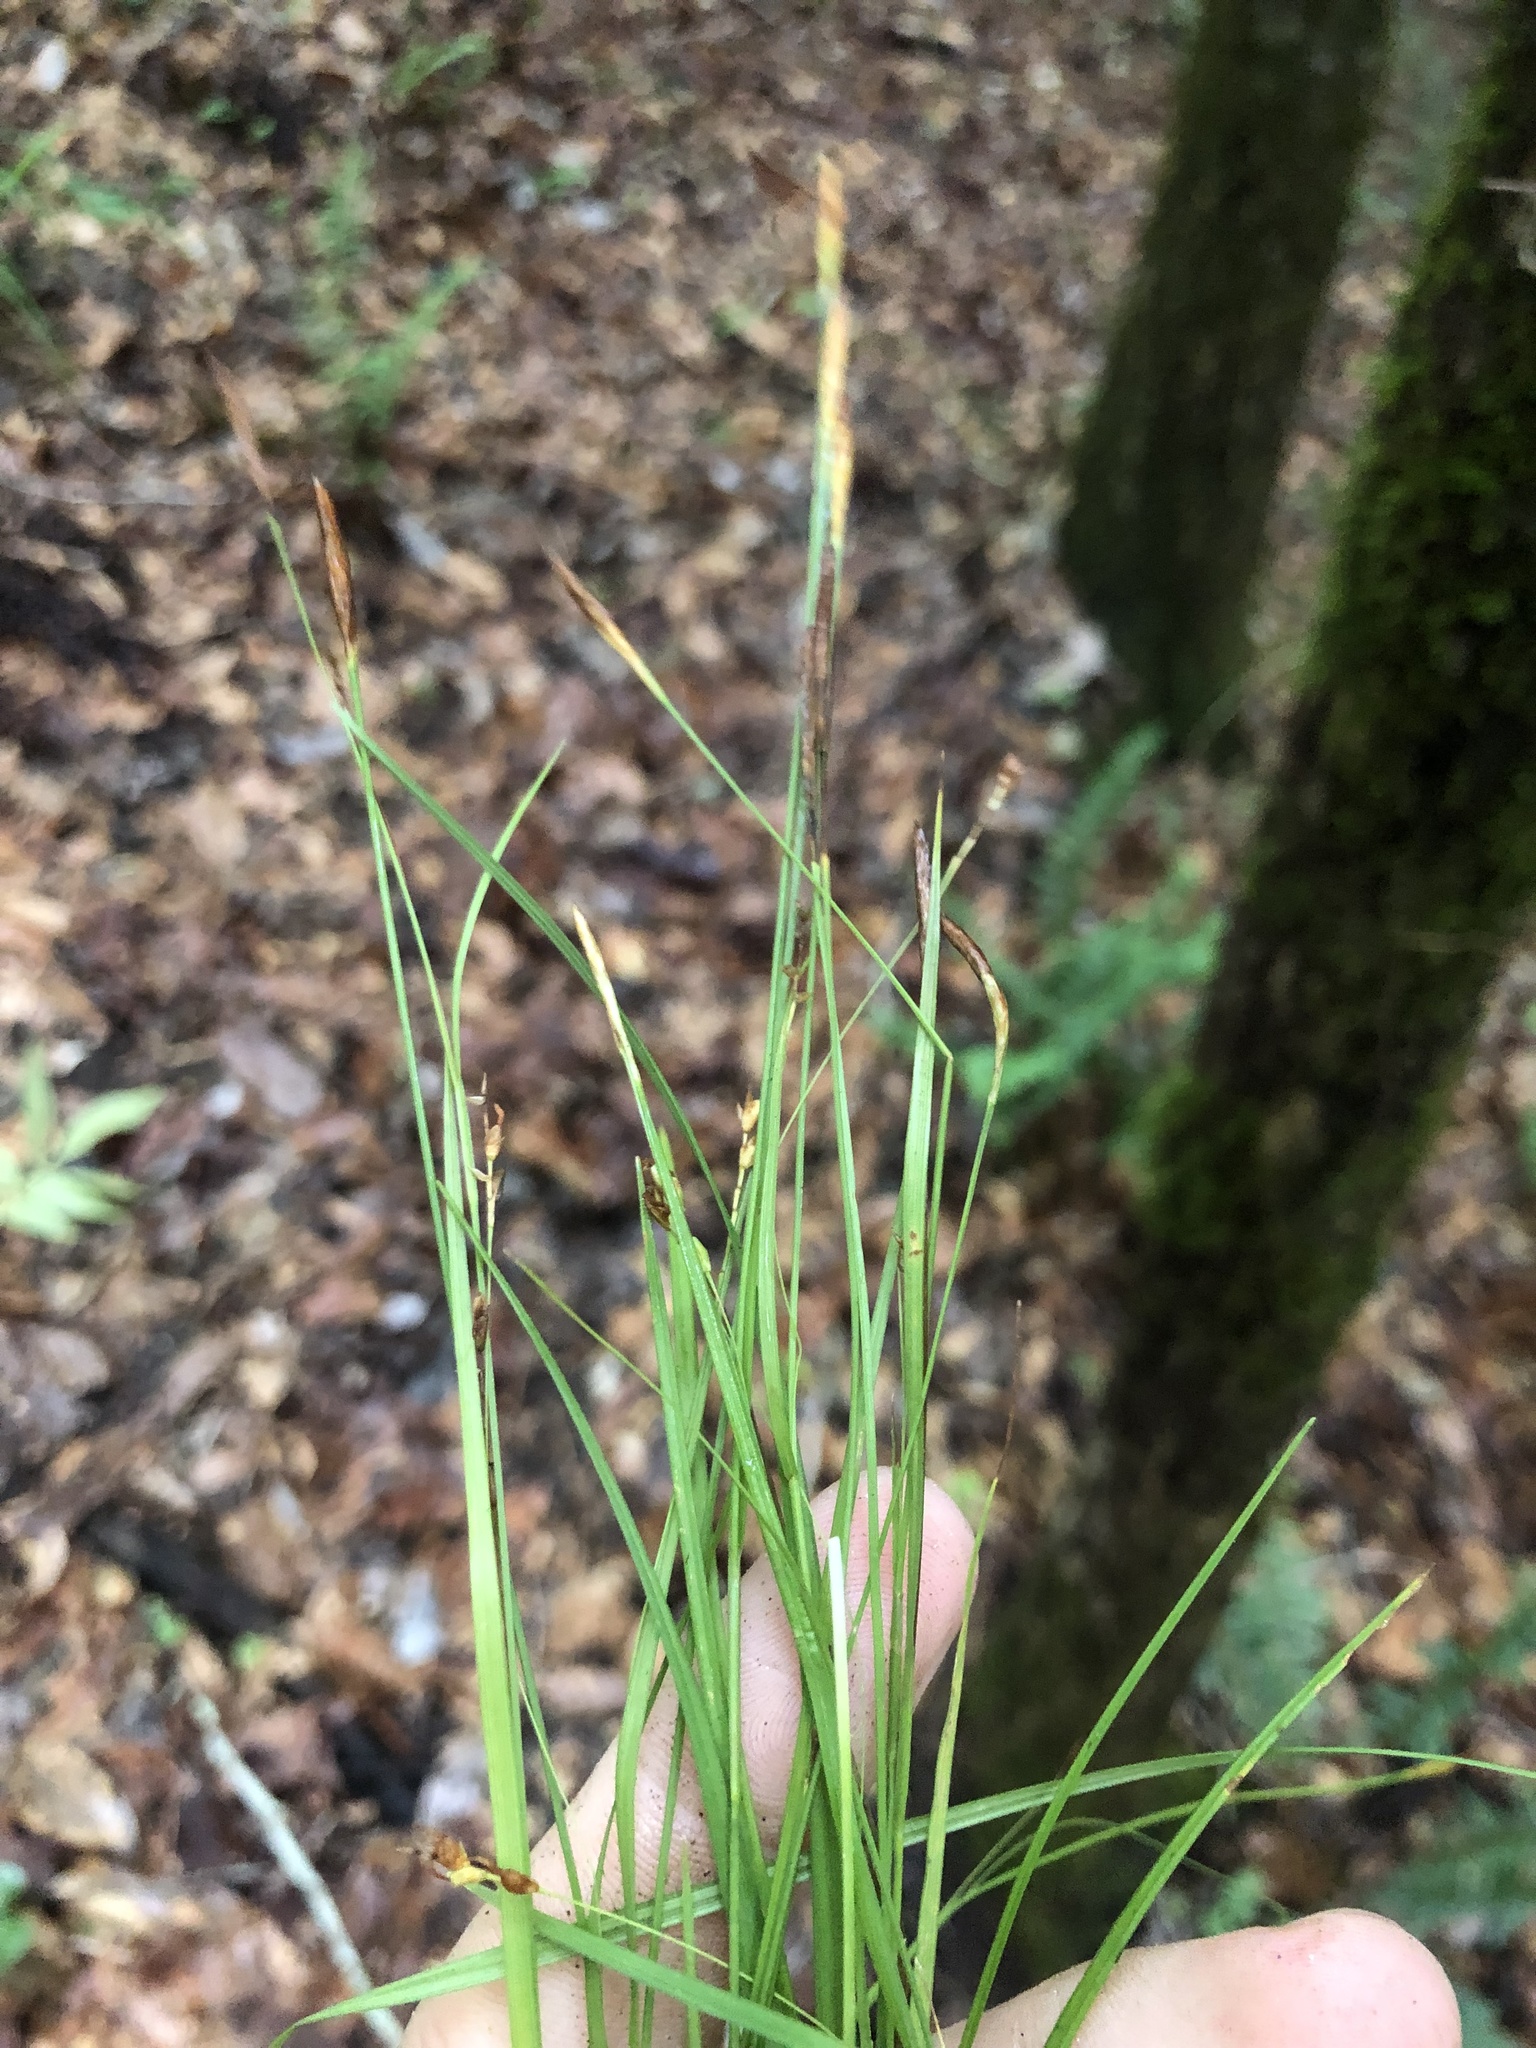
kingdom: Plantae
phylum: Tracheophyta
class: Liliopsida
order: Poales
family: Cyperaceae
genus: Carex
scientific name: Carex digitalis
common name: Slender wood sedge
